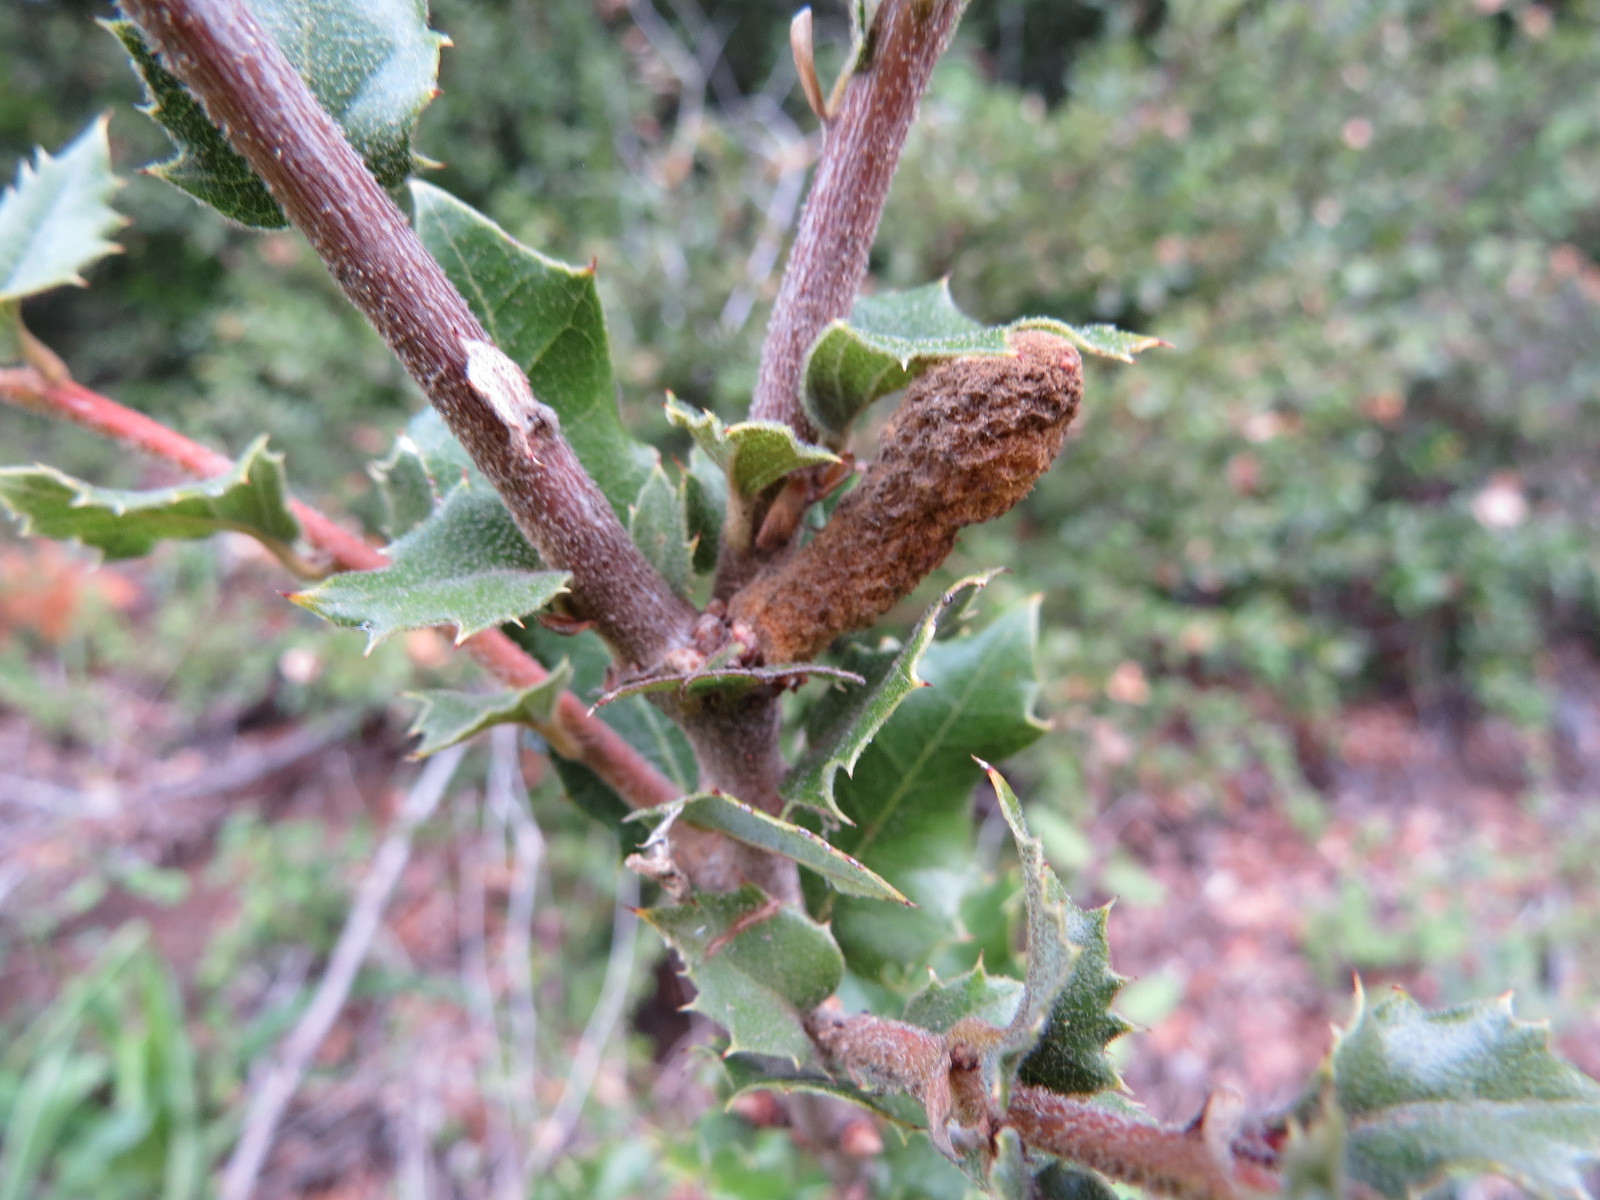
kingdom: Animalia
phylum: Arthropoda
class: Insecta
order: Hymenoptera
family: Cynipidae
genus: Heteroecus
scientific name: Heteroecus
